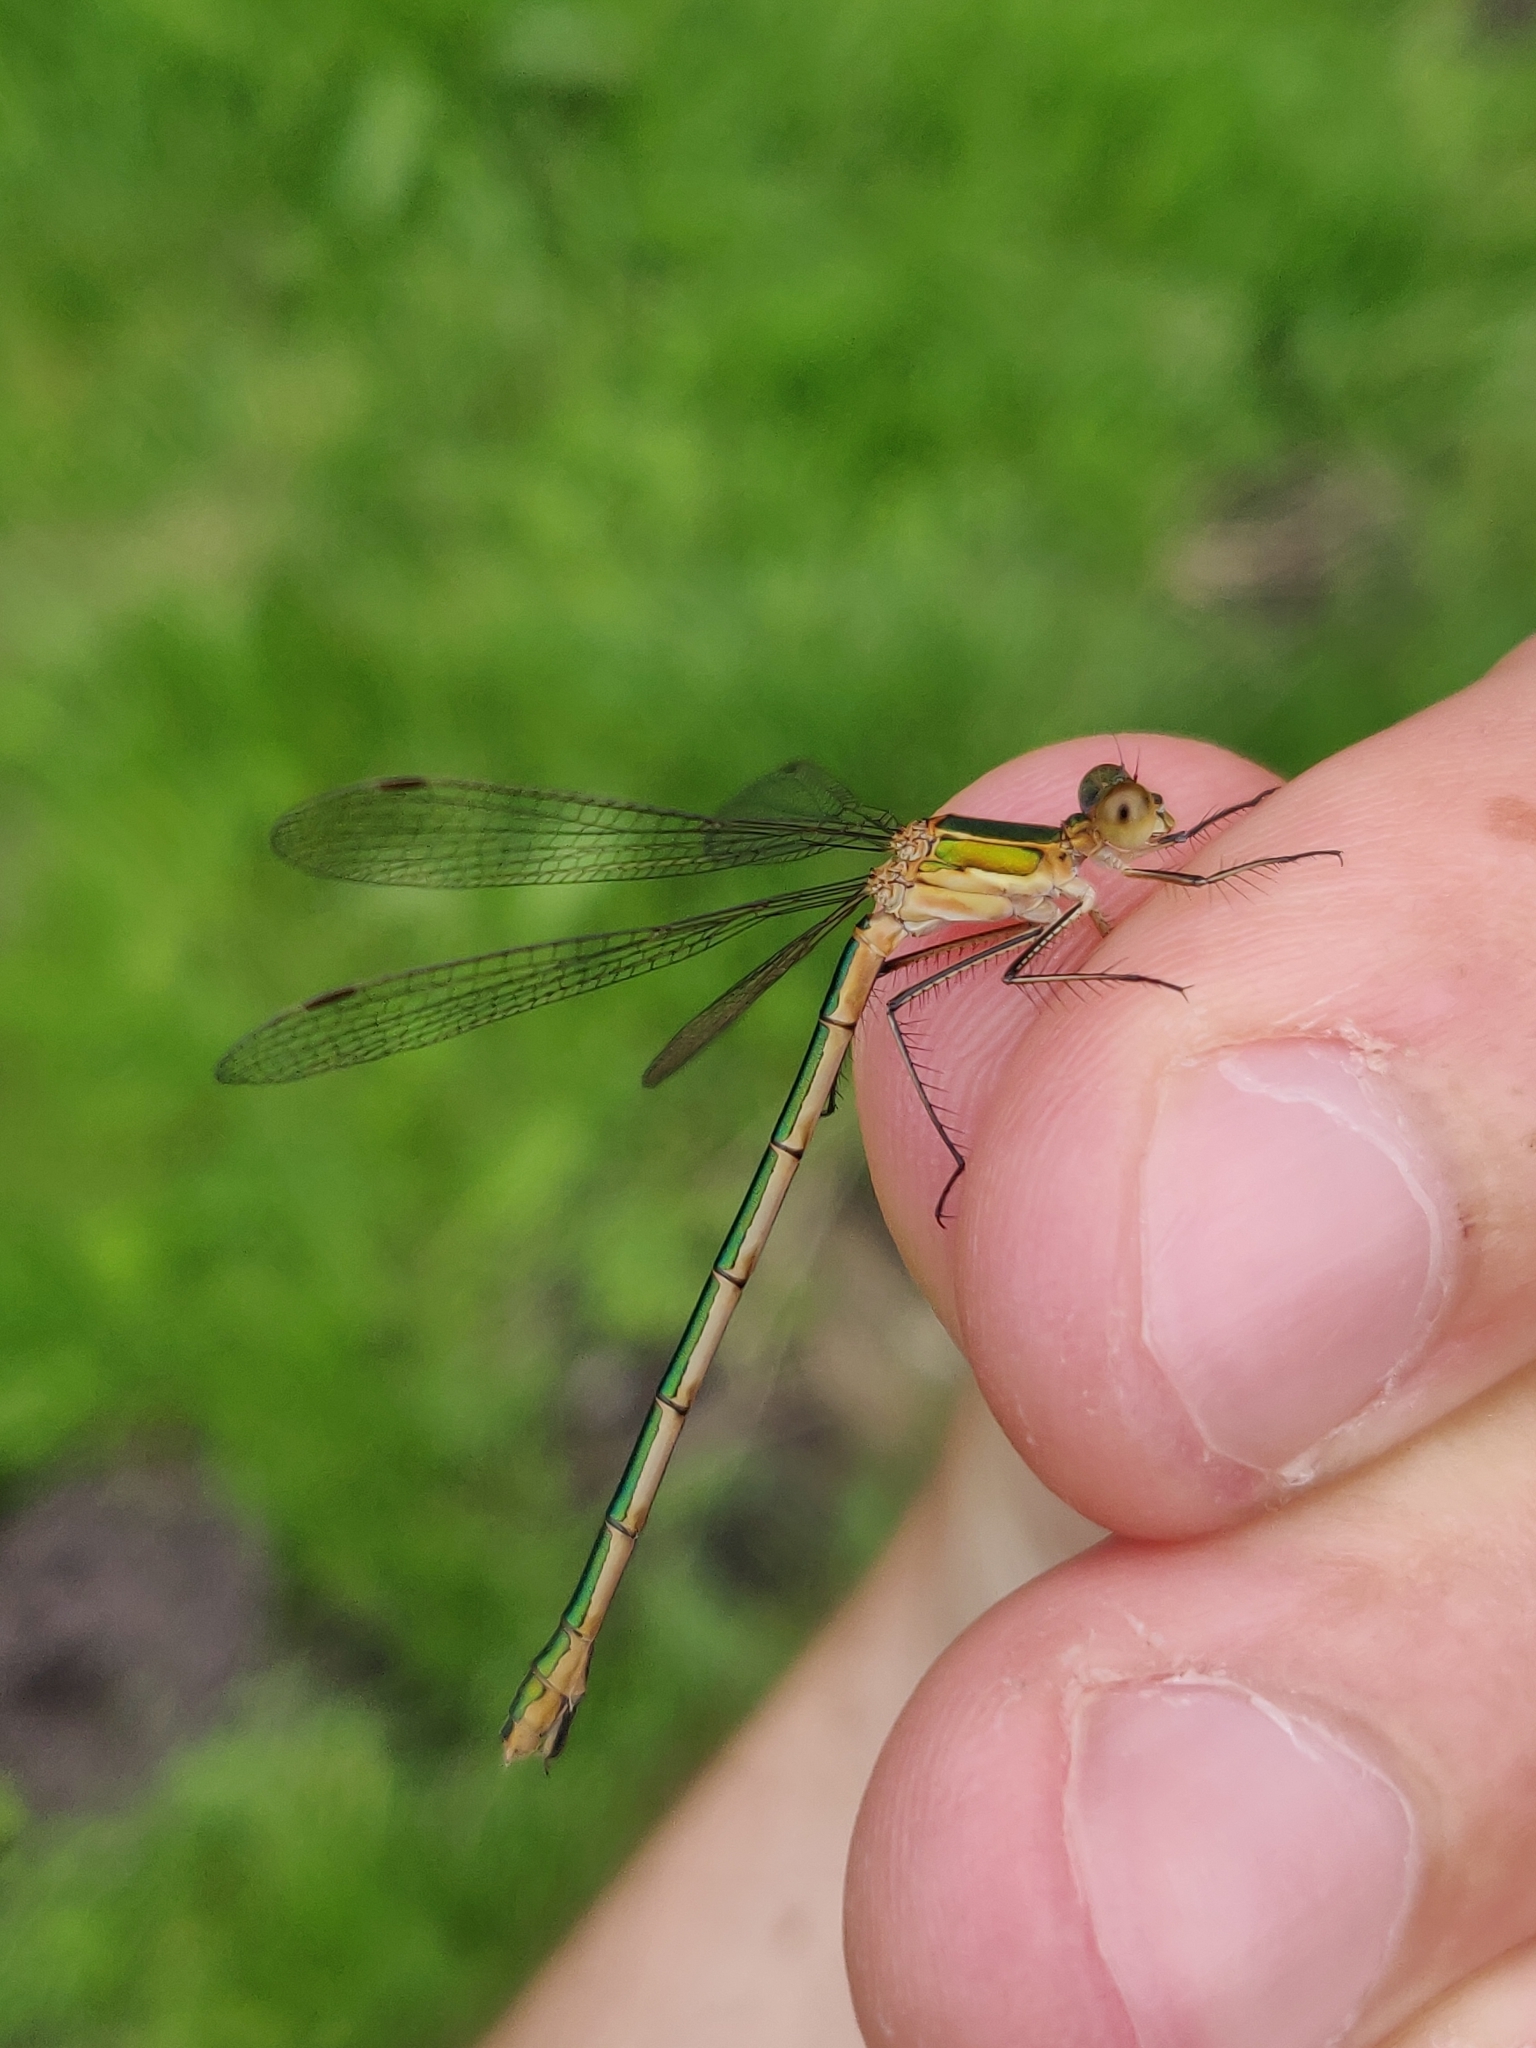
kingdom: Animalia
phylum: Arthropoda
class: Insecta
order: Odonata
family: Lestidae
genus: Lestes
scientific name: Lestes sponsa
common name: Common spreadwing
